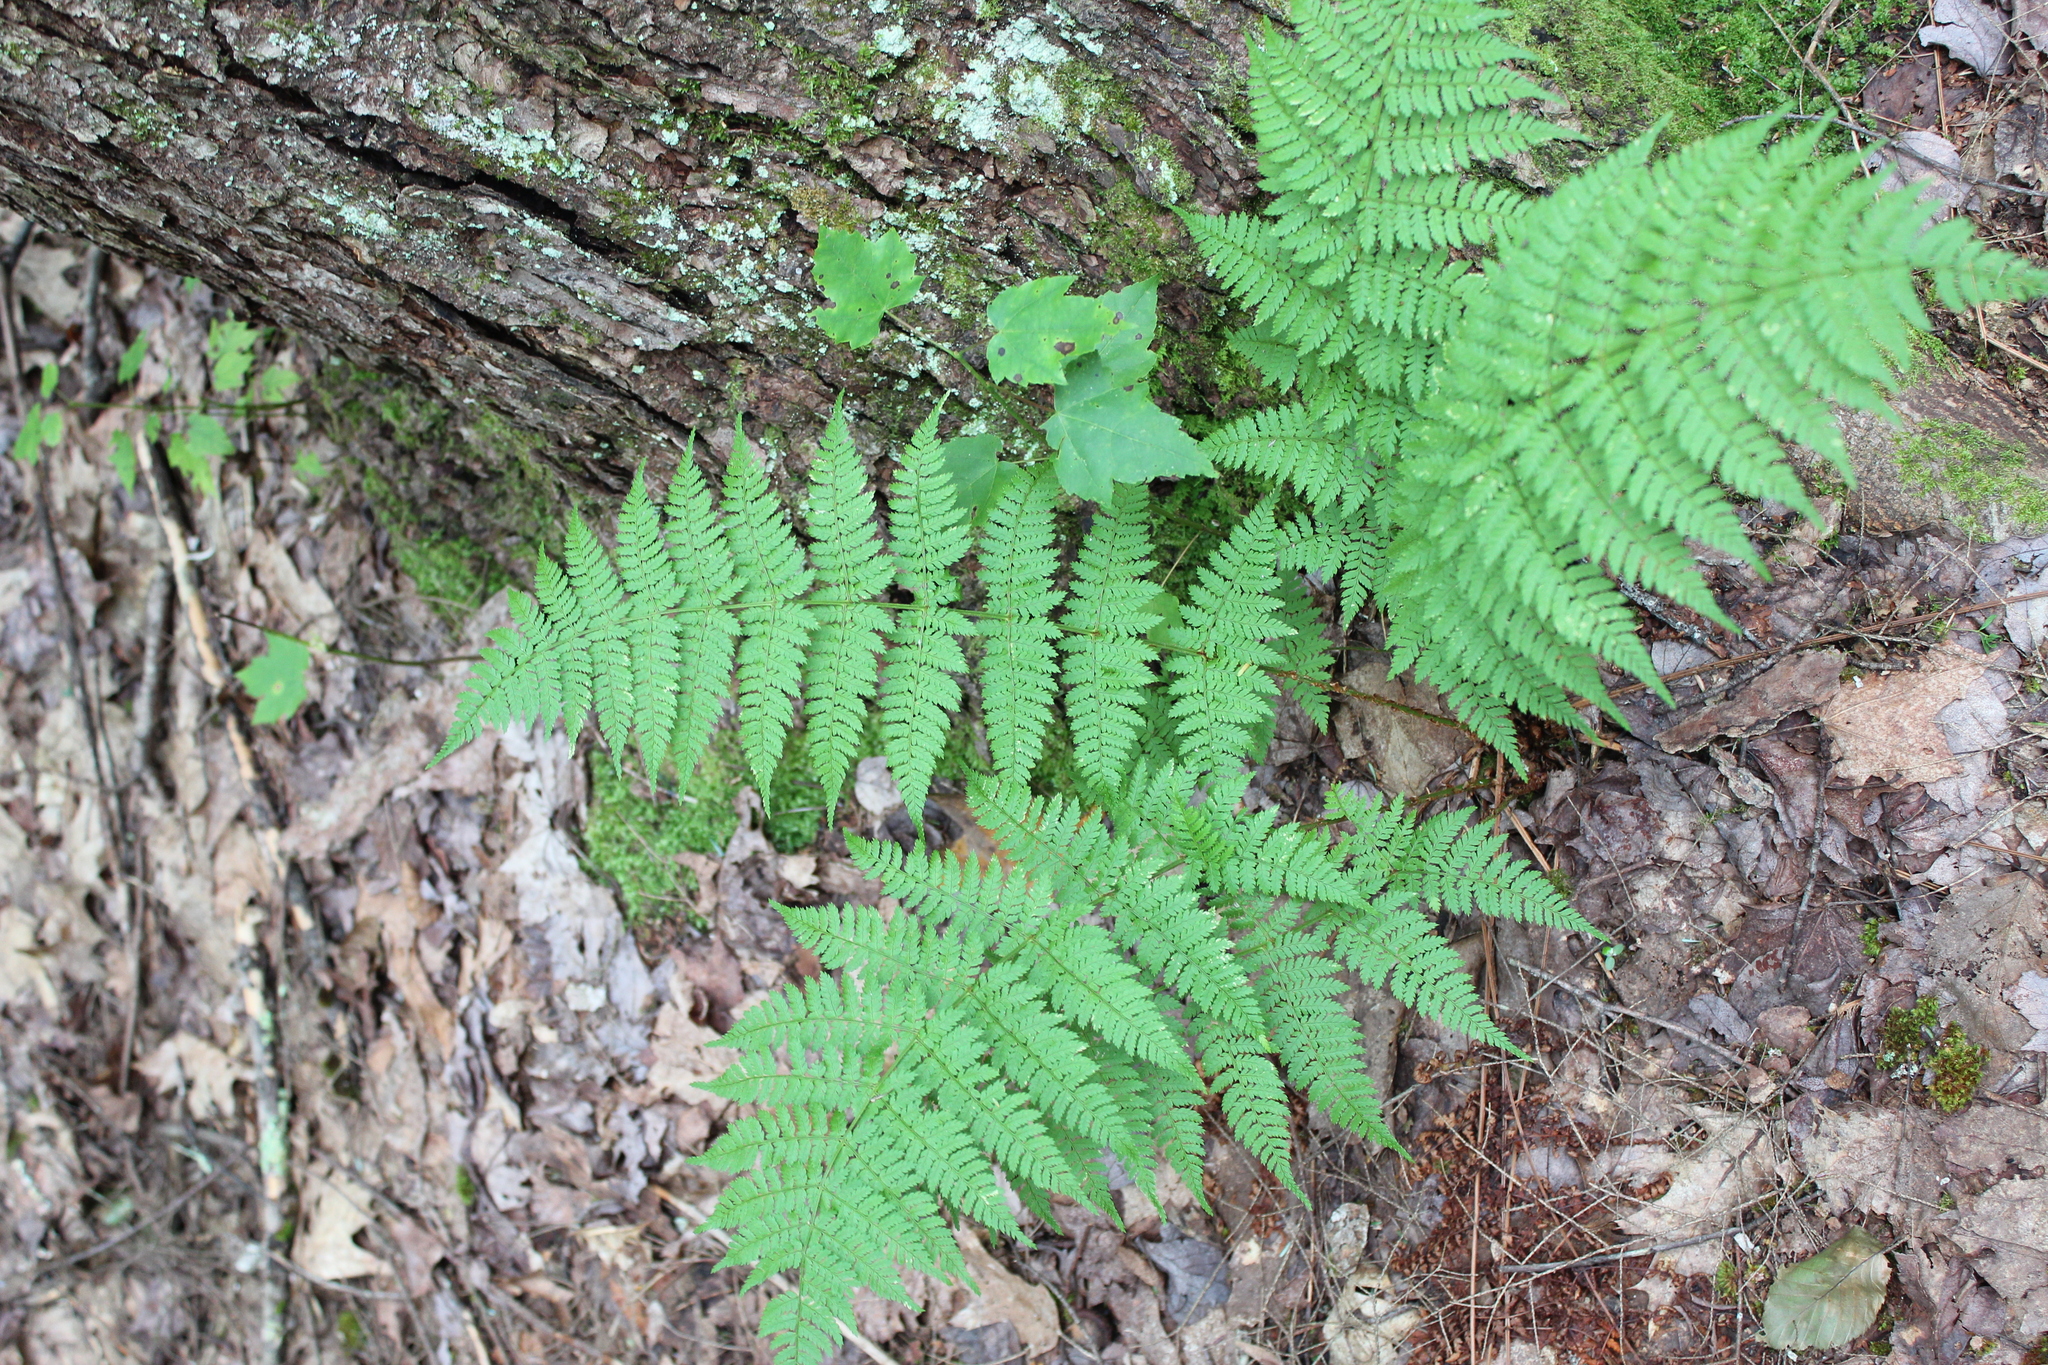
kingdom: Plantae
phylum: Tracheophyta
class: Polypodiopsida
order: Polypodiales
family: Dryopteridaceae
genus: Dryopteris
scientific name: Dryopteris intermedia
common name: Evergreen wood fern
